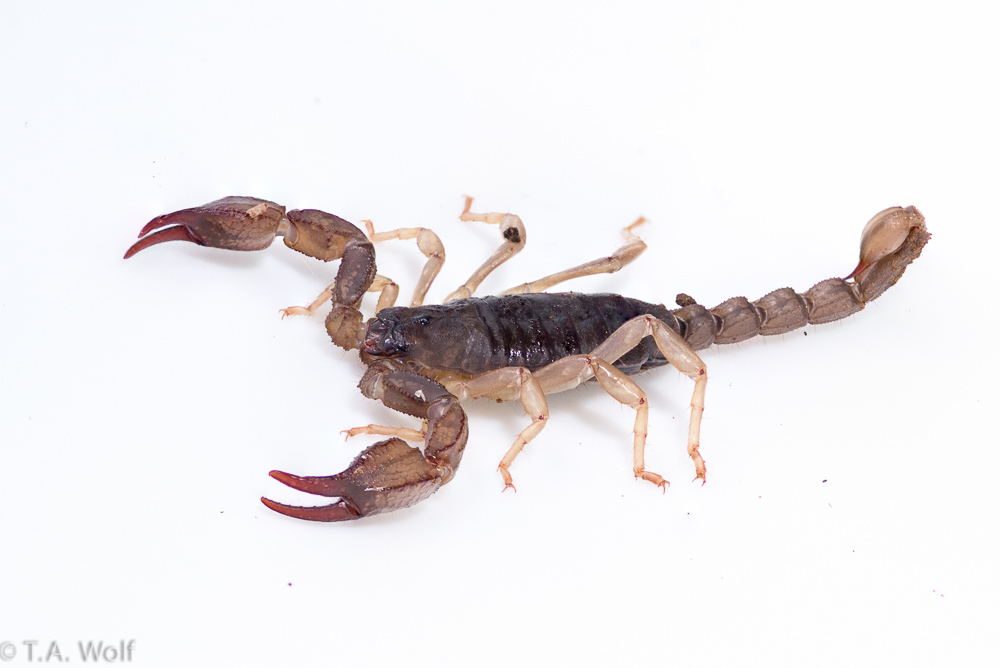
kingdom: Animalia
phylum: Arthropoda
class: Arachnida
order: Scorpiones
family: Chactidae
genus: Uroctonus
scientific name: Uroctonus mordax
